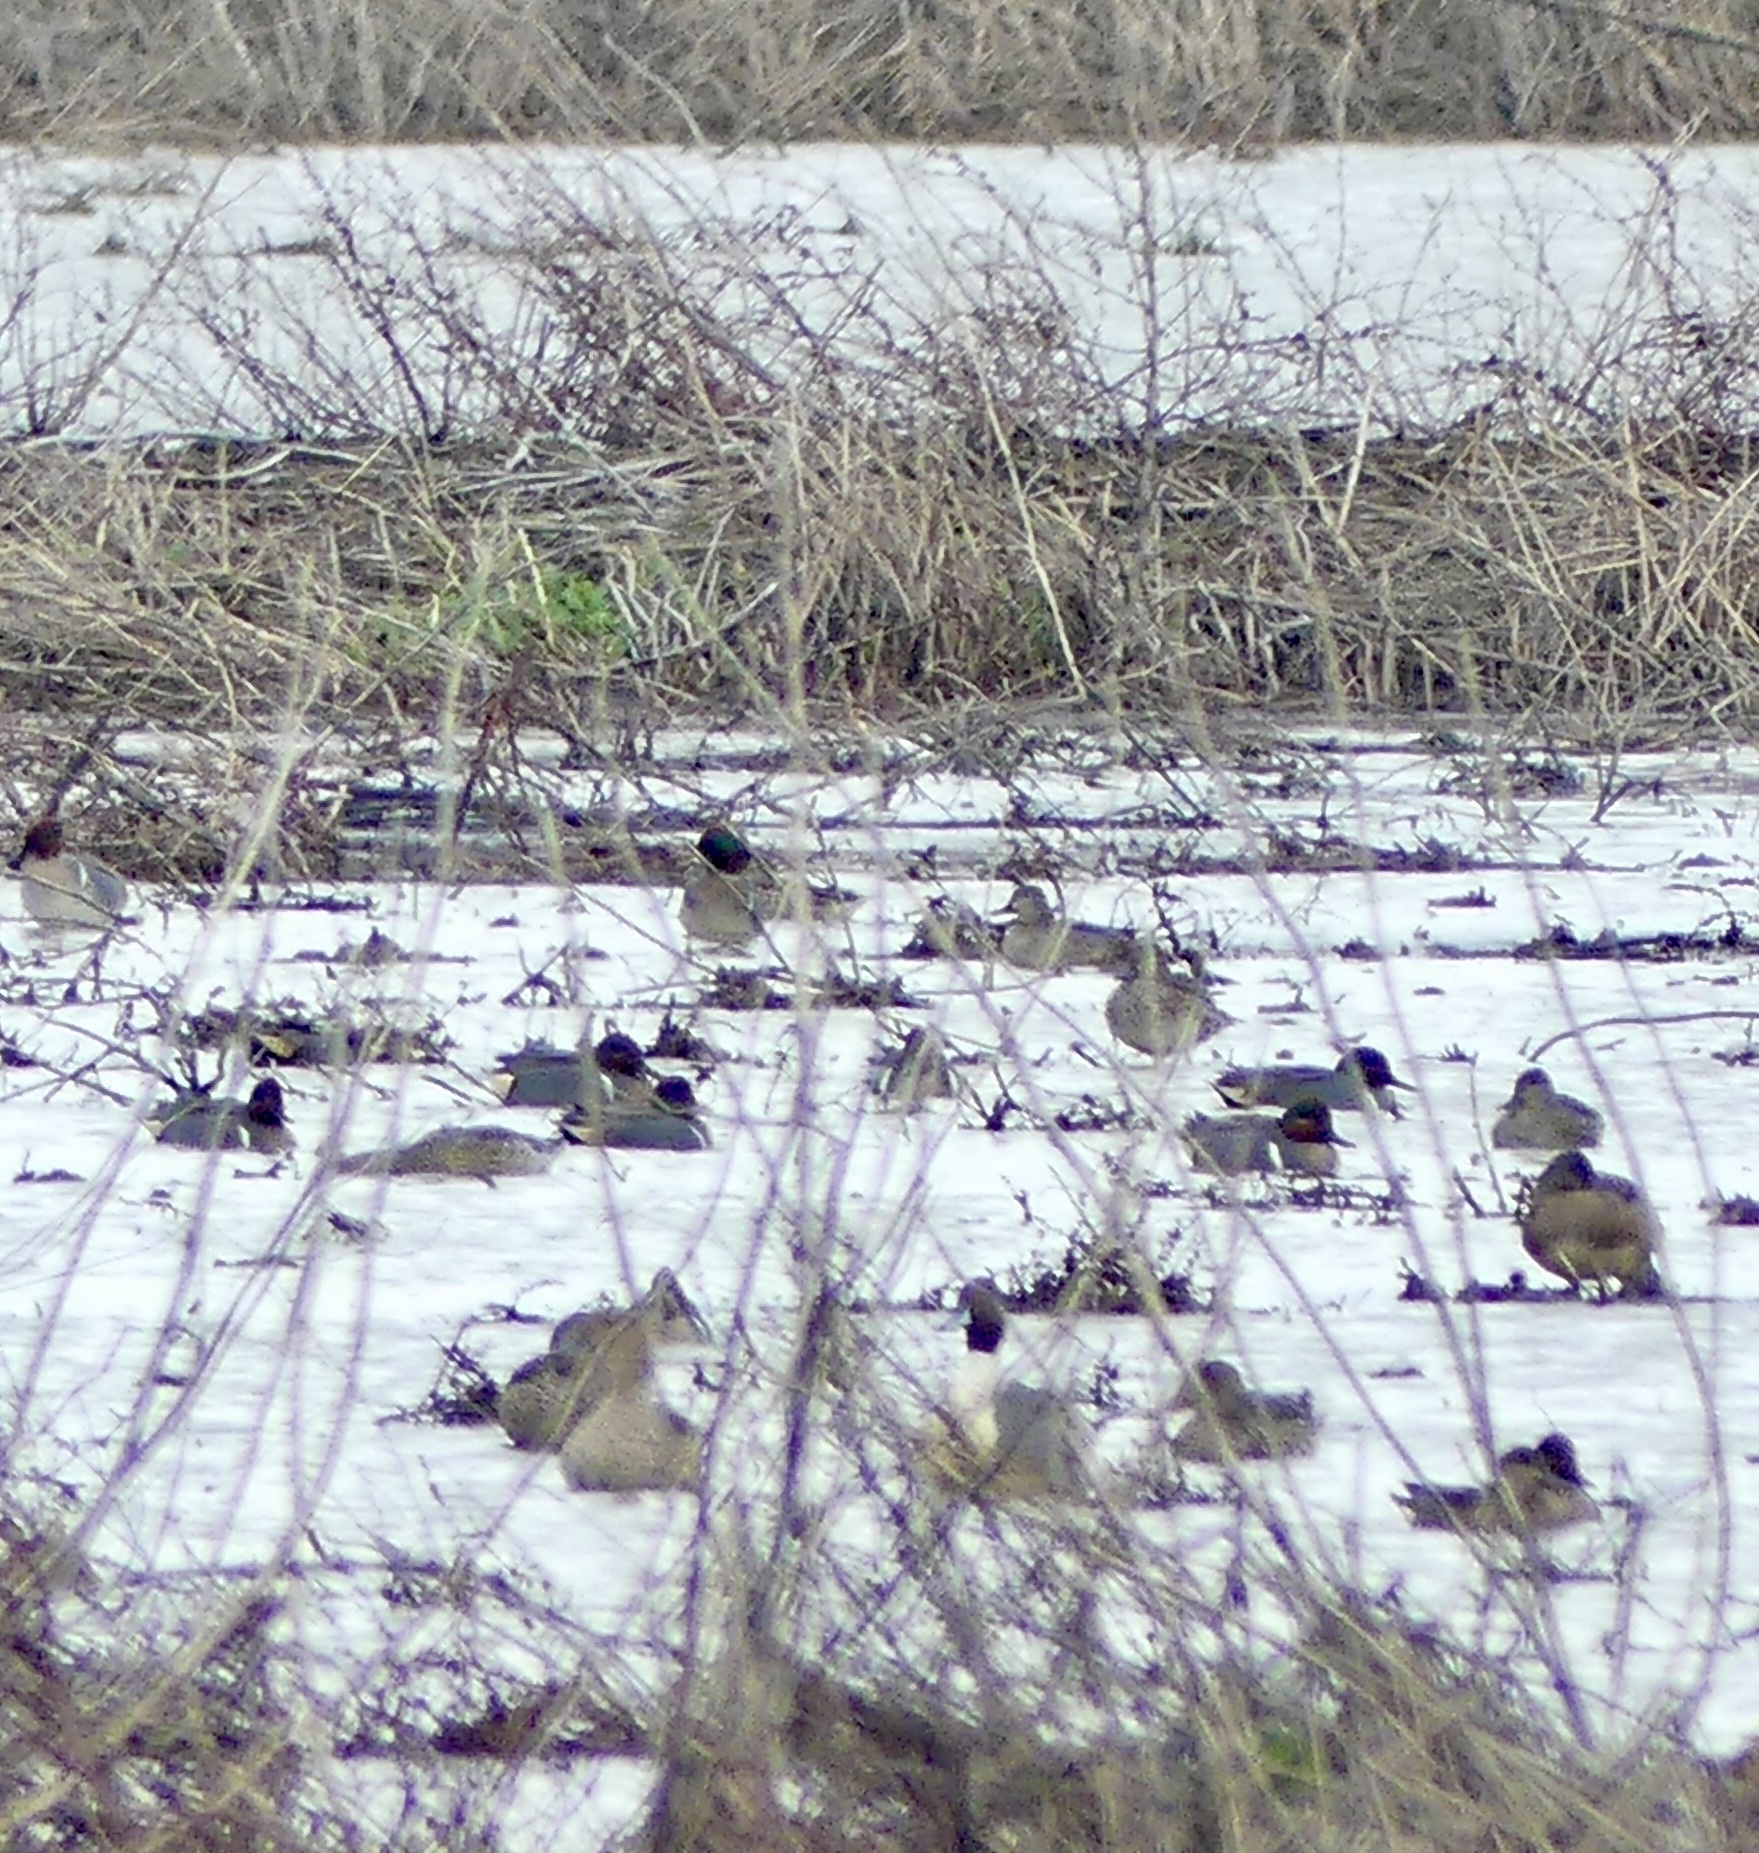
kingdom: Animalia
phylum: Chordata
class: Aves
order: Anseriformes
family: Anatidae
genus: Anas
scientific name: Anas crecca
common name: Eurasian teal
